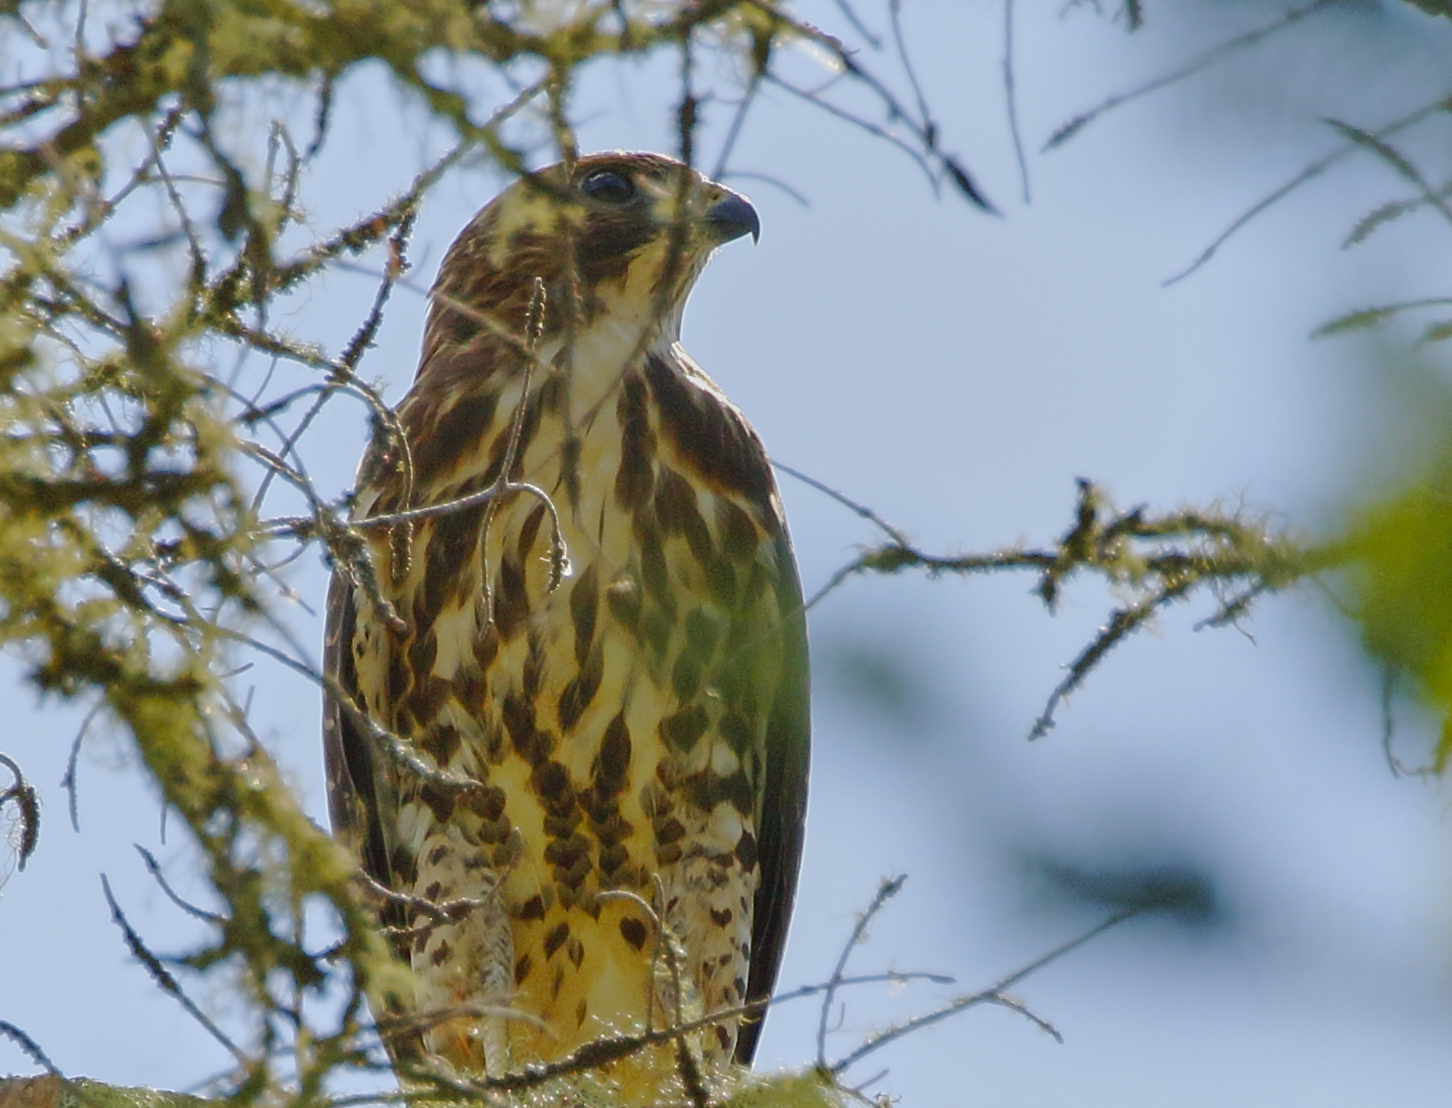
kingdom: Animalia
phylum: Chordata
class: Aves
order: Accipitriformes
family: Accipitridae
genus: Buteo
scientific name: Buteo platypterus
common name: Broad-winged hawk
